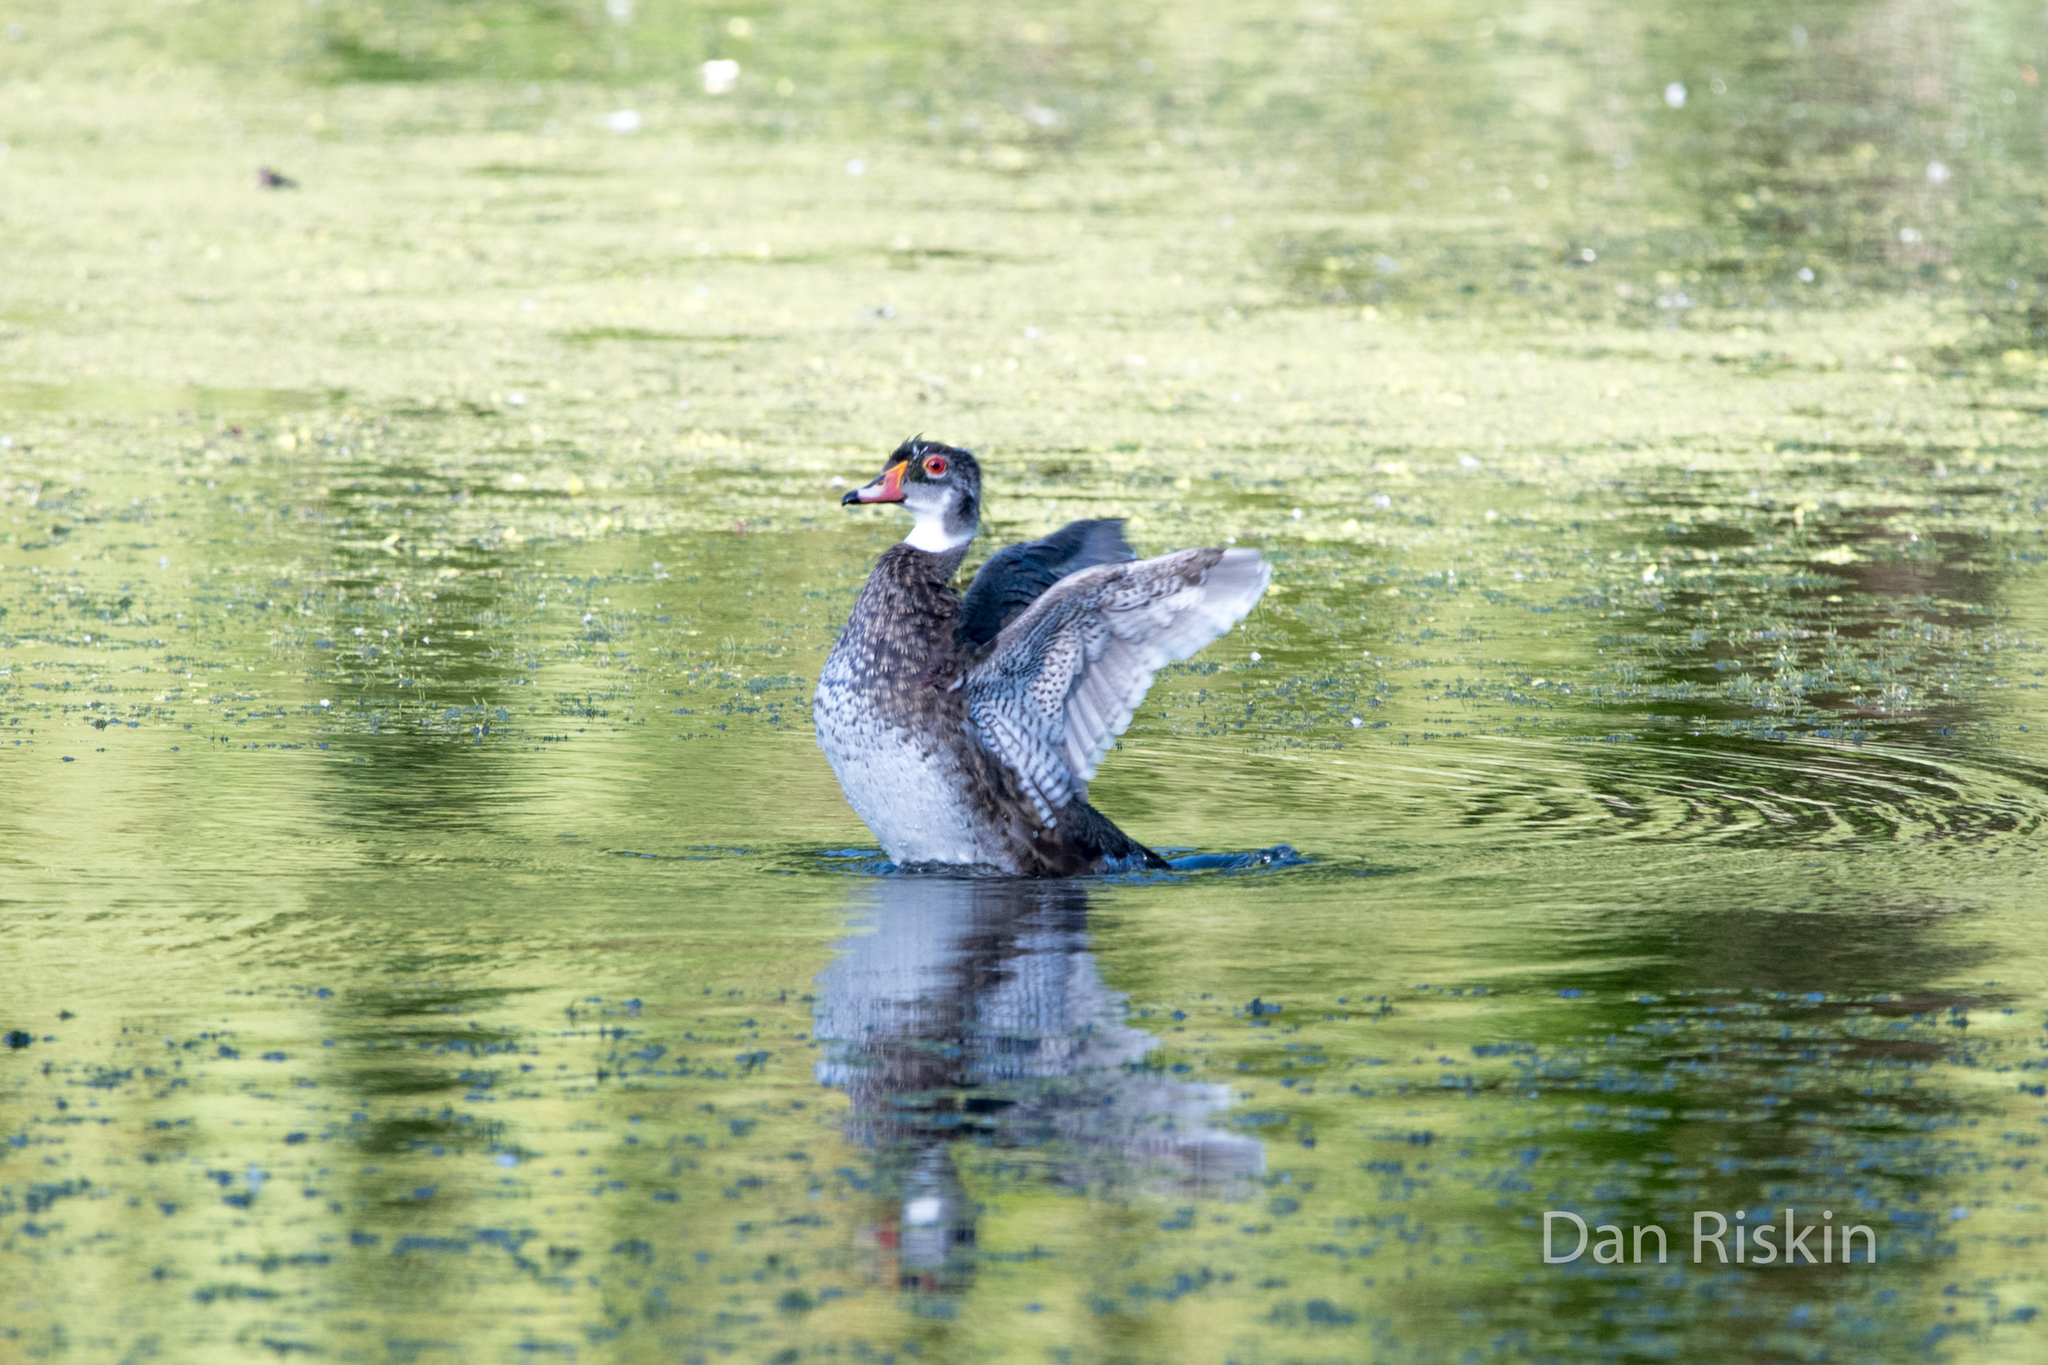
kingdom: Animalia
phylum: Chordata
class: Aves
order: Anseriformes
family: Anatidae
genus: Aix
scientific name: Aix sponsa
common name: Wood duck
